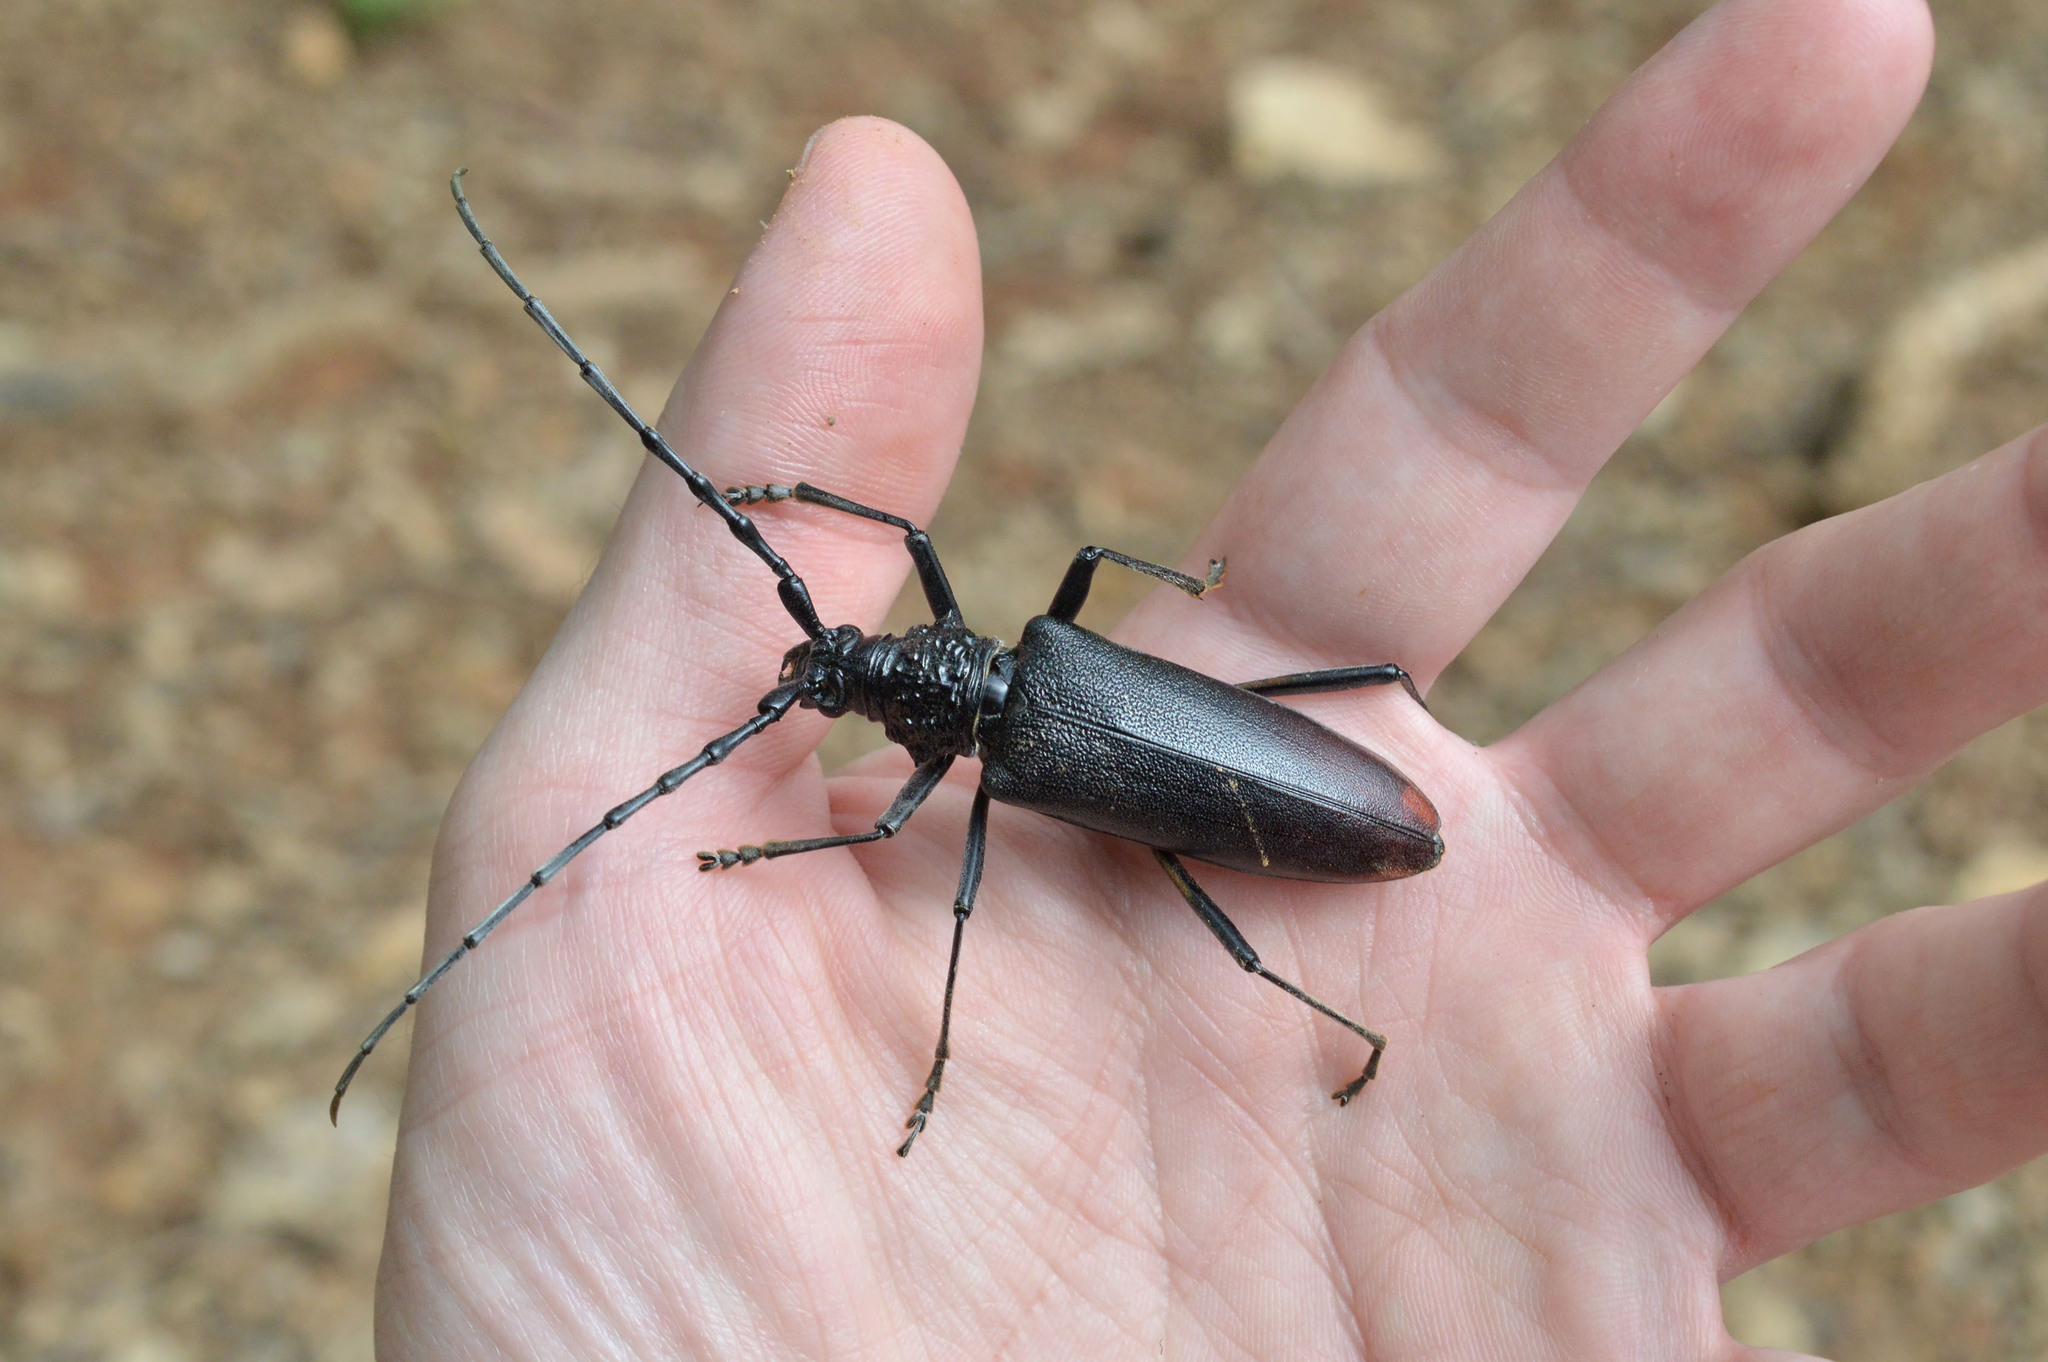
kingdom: Animalia
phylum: Arthropoda
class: Insecta
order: Coleoptera
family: Cerambycidae
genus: Cerambyx
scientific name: Cerambyx cerdo
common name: Cerambyx longicorn
